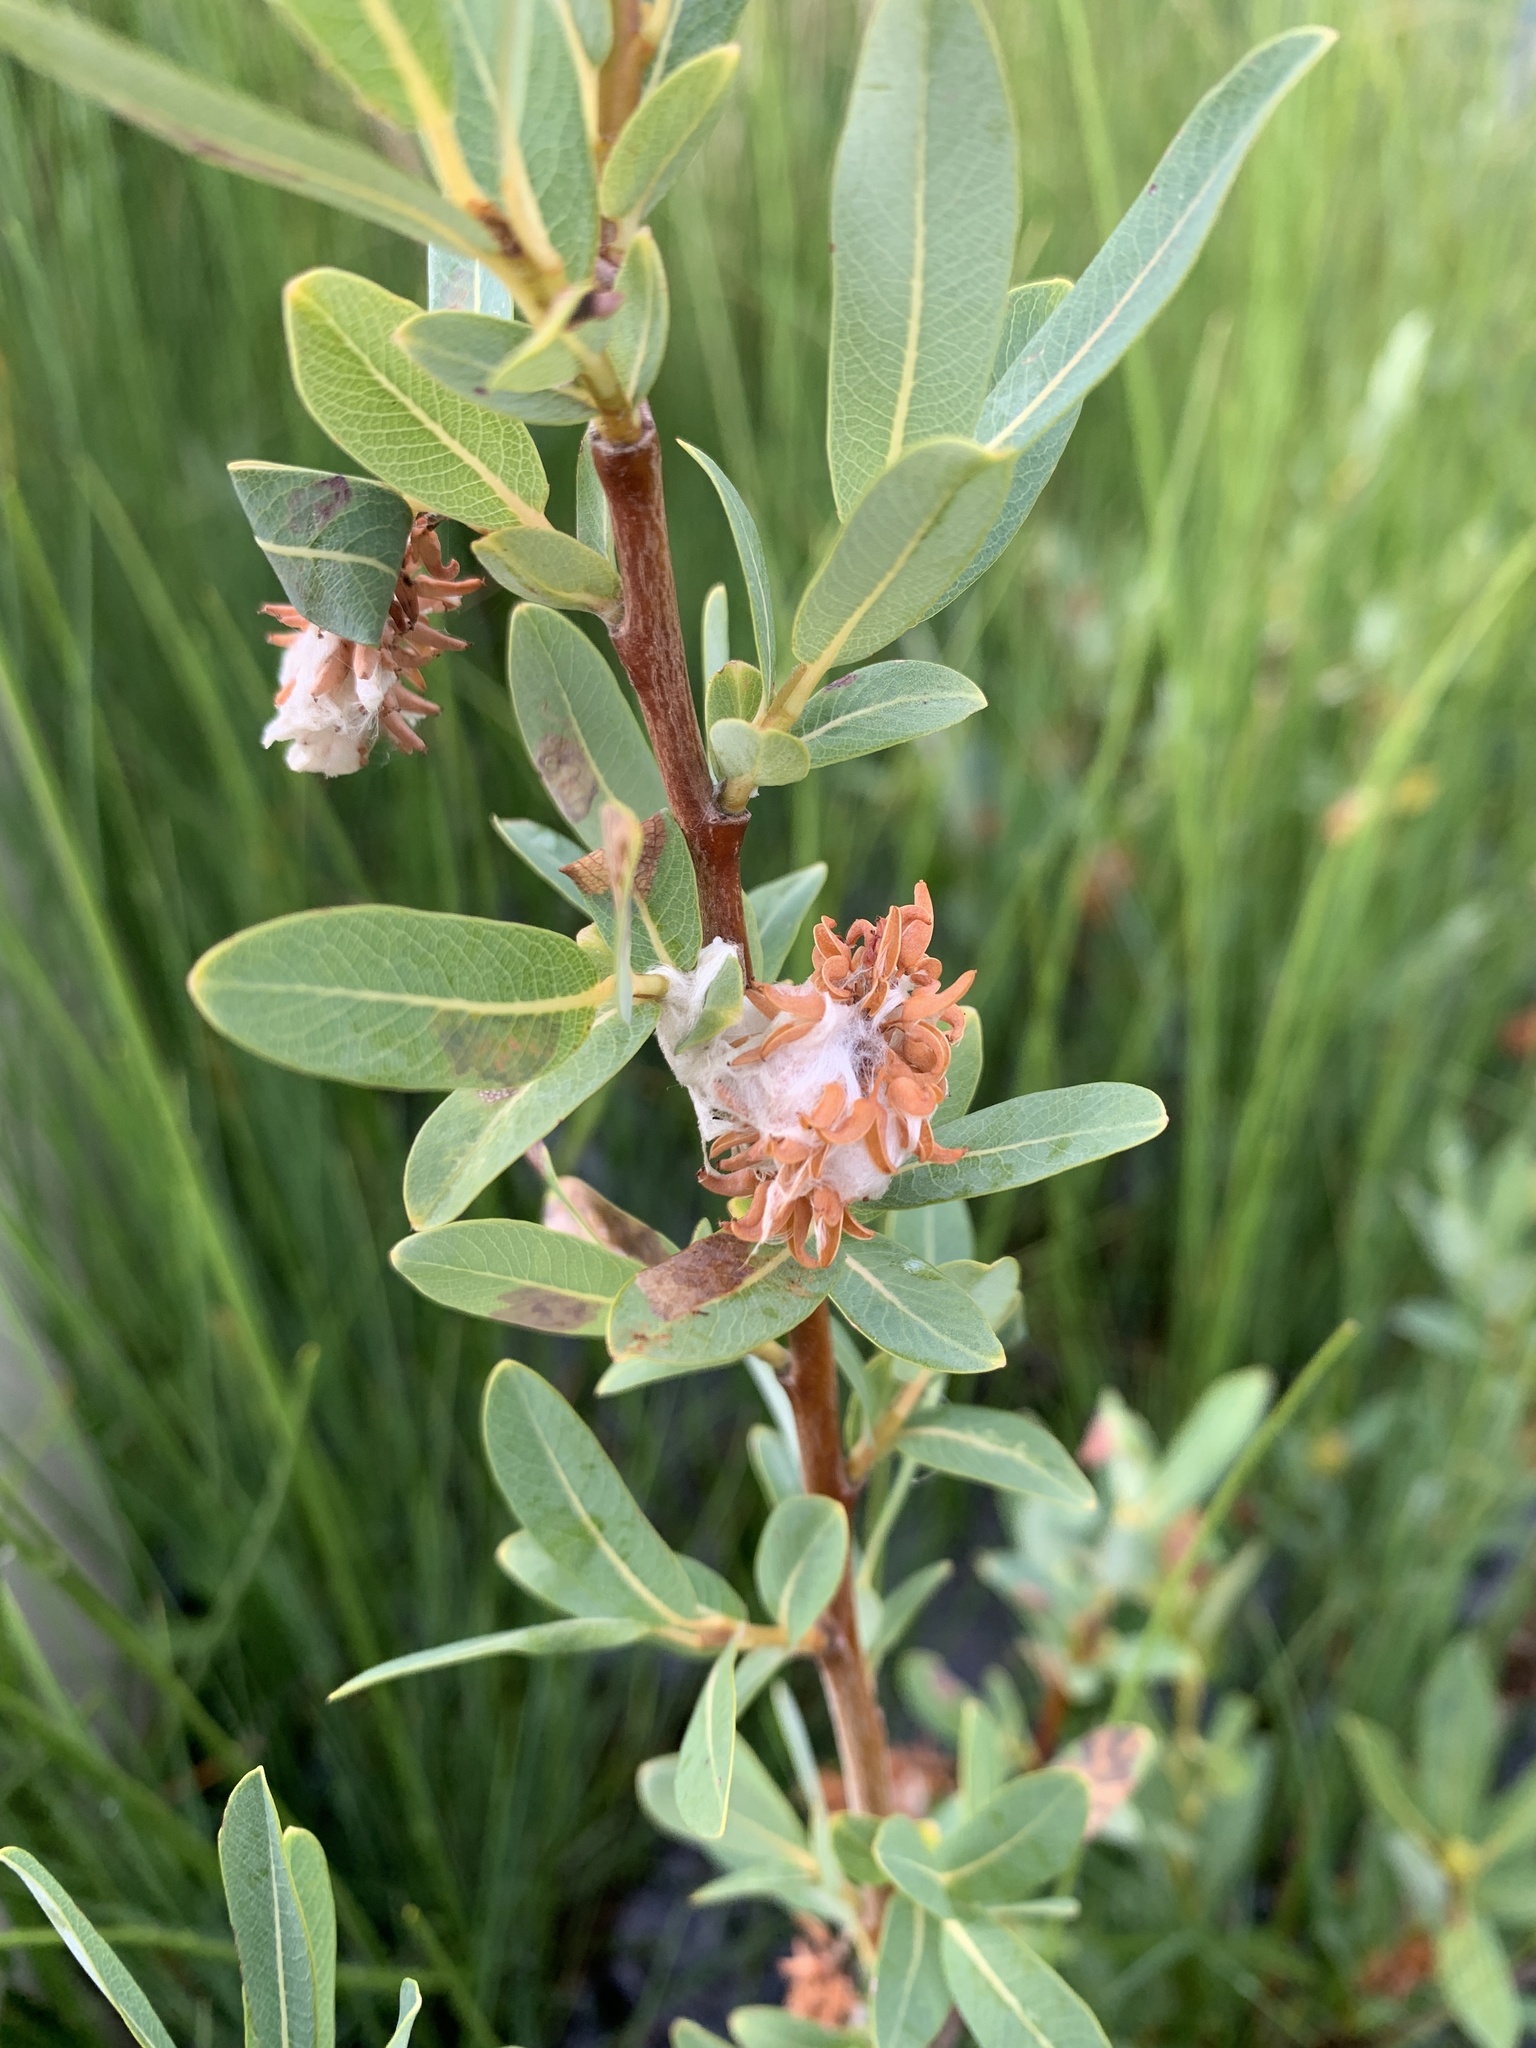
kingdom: Plantae
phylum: Tracheophyta
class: Magnoliopsida
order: Malpighiales
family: Salicaceae
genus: Salix
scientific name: Salix pedicellaris
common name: Bog willow
